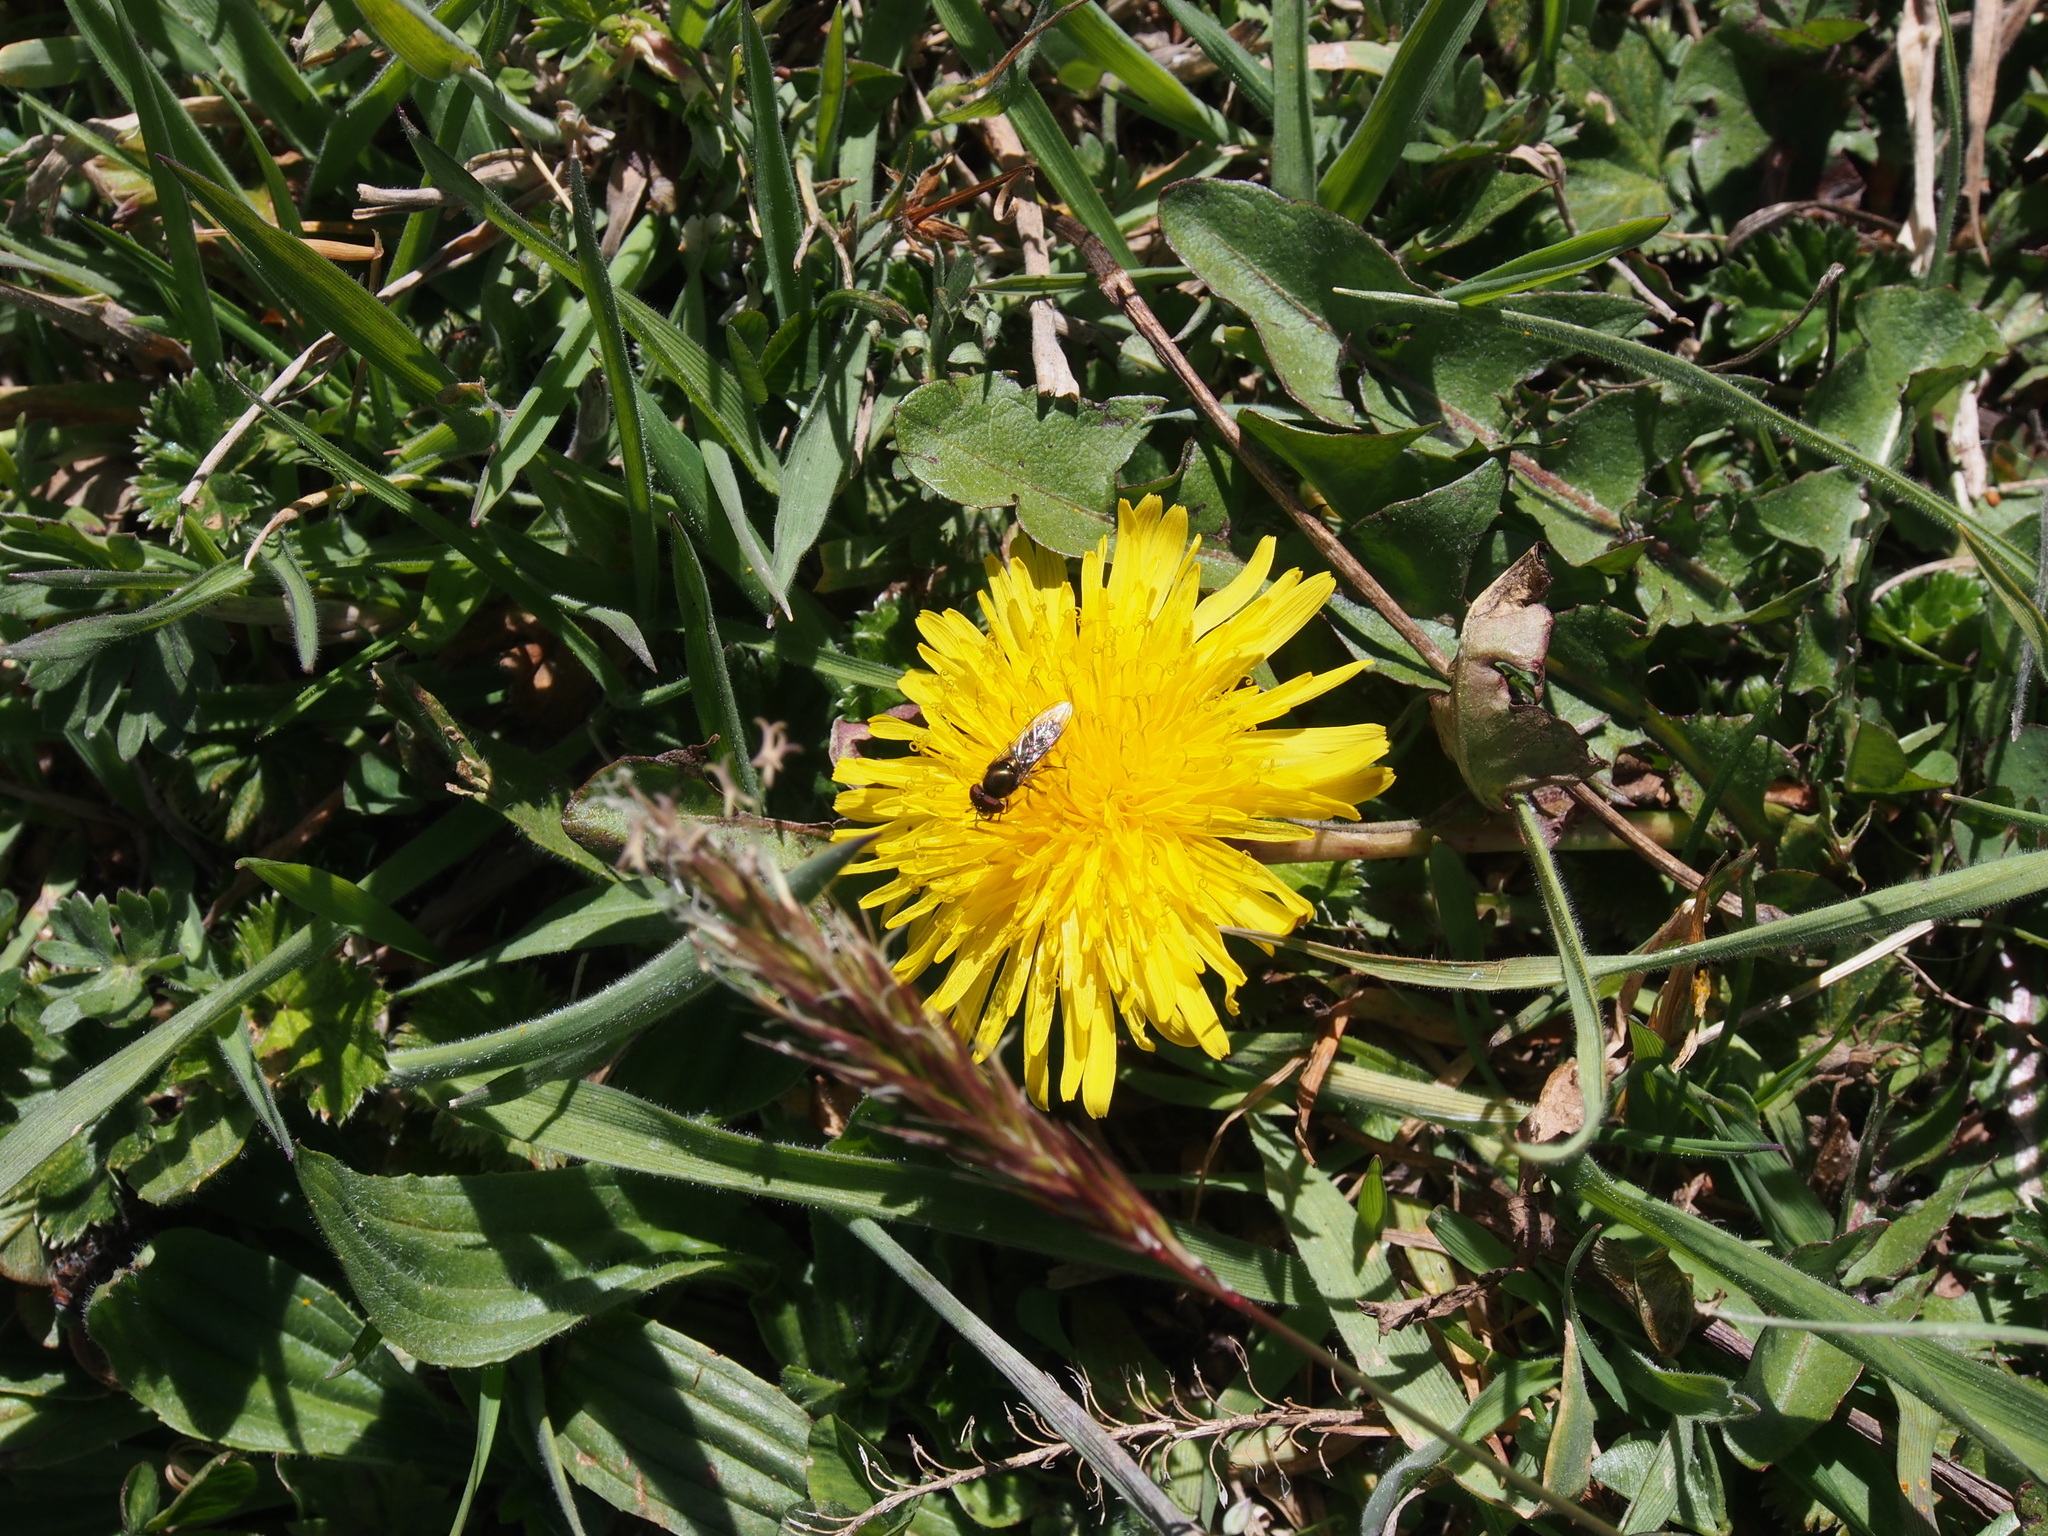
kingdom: Plantae
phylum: Tracheophyta
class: Magnoliopsida
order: Asterales
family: Asteraceae
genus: Taraxacum
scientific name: Taraxacum officinale
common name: Common dandelion
